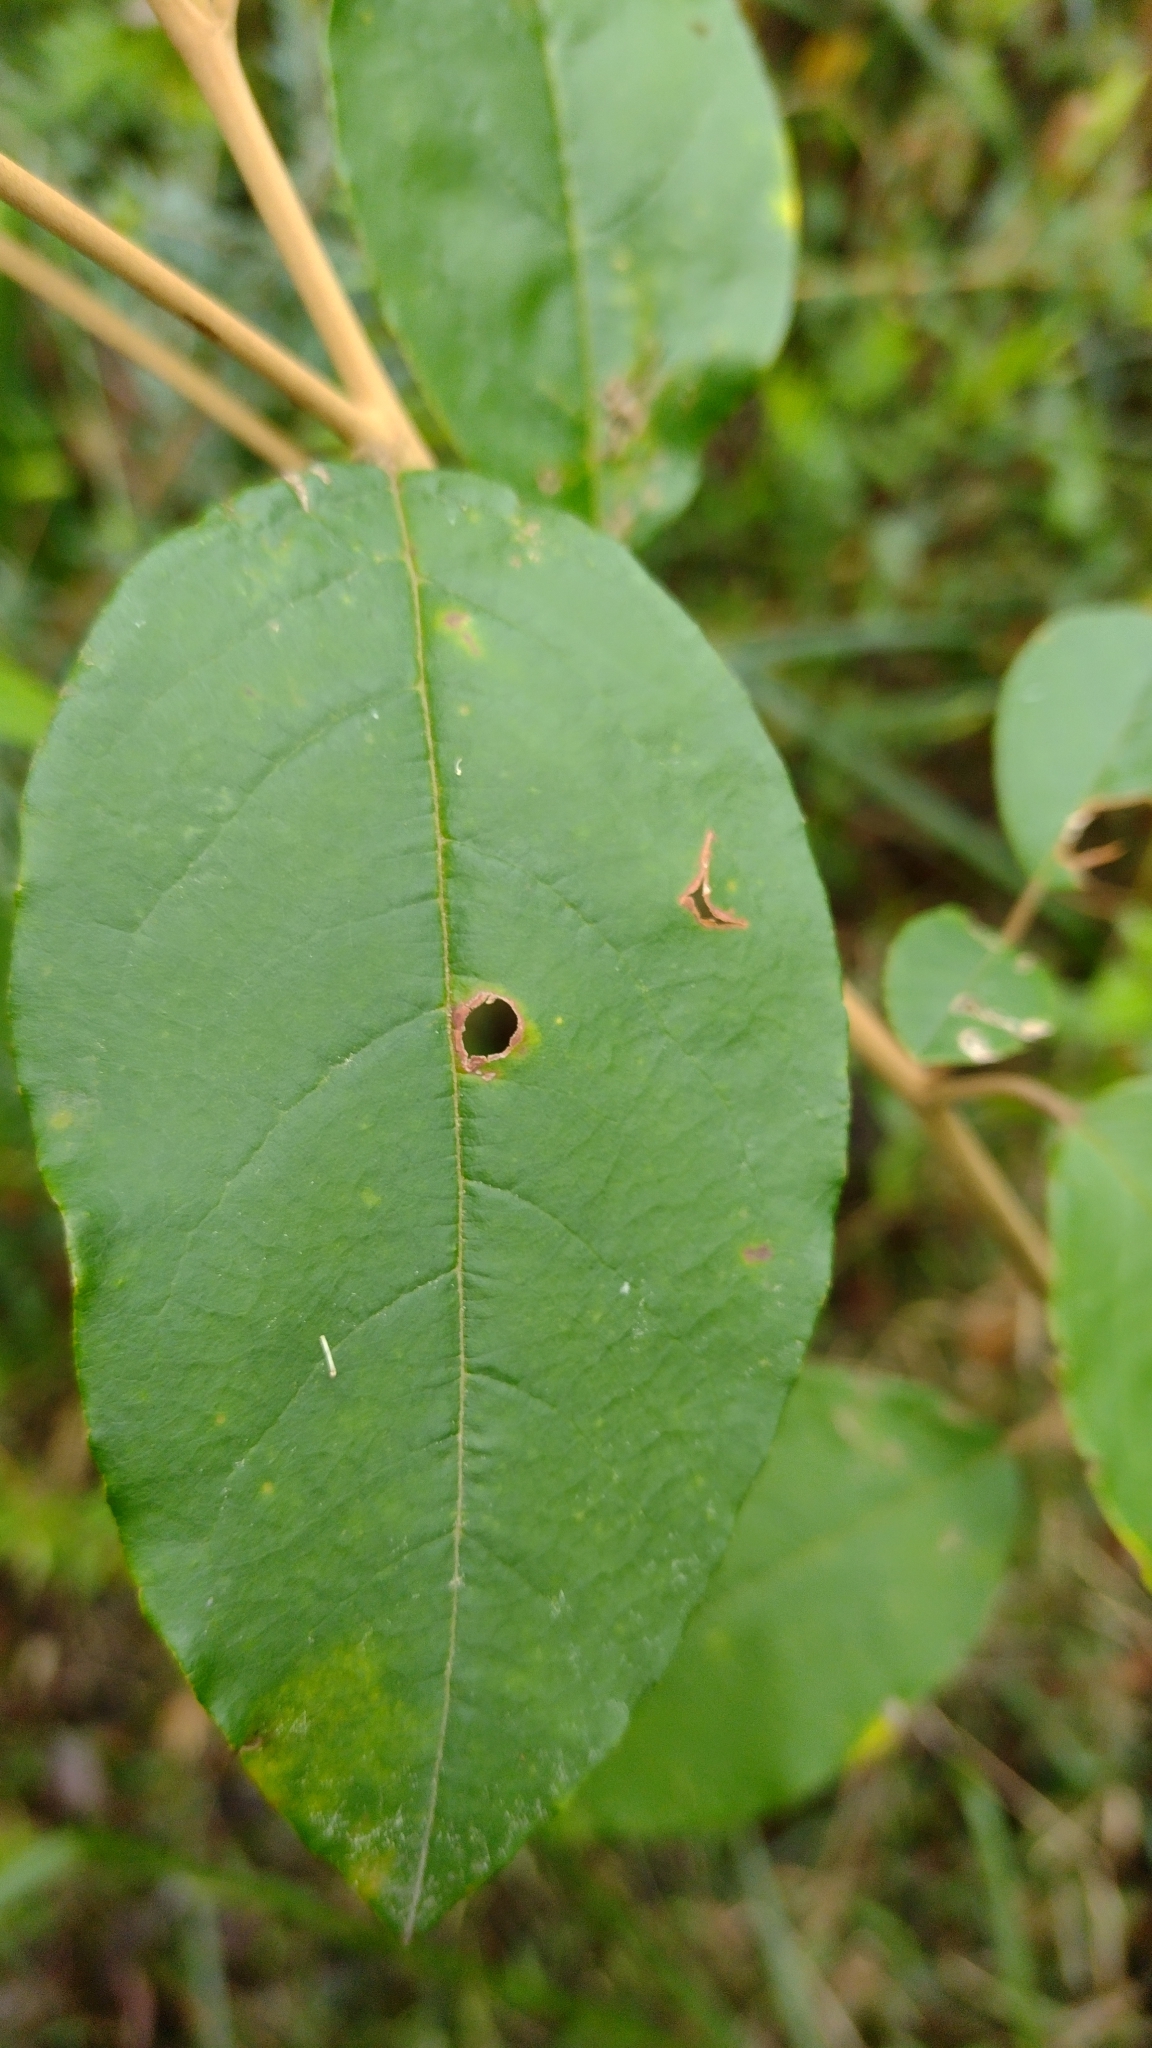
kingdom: Plantae
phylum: Tracheophyta
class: Magnoliopsida
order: Rosales
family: Rhamnaceae
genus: Pomaderris
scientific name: Pomaderris elliptica
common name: Yellow-dogwood
